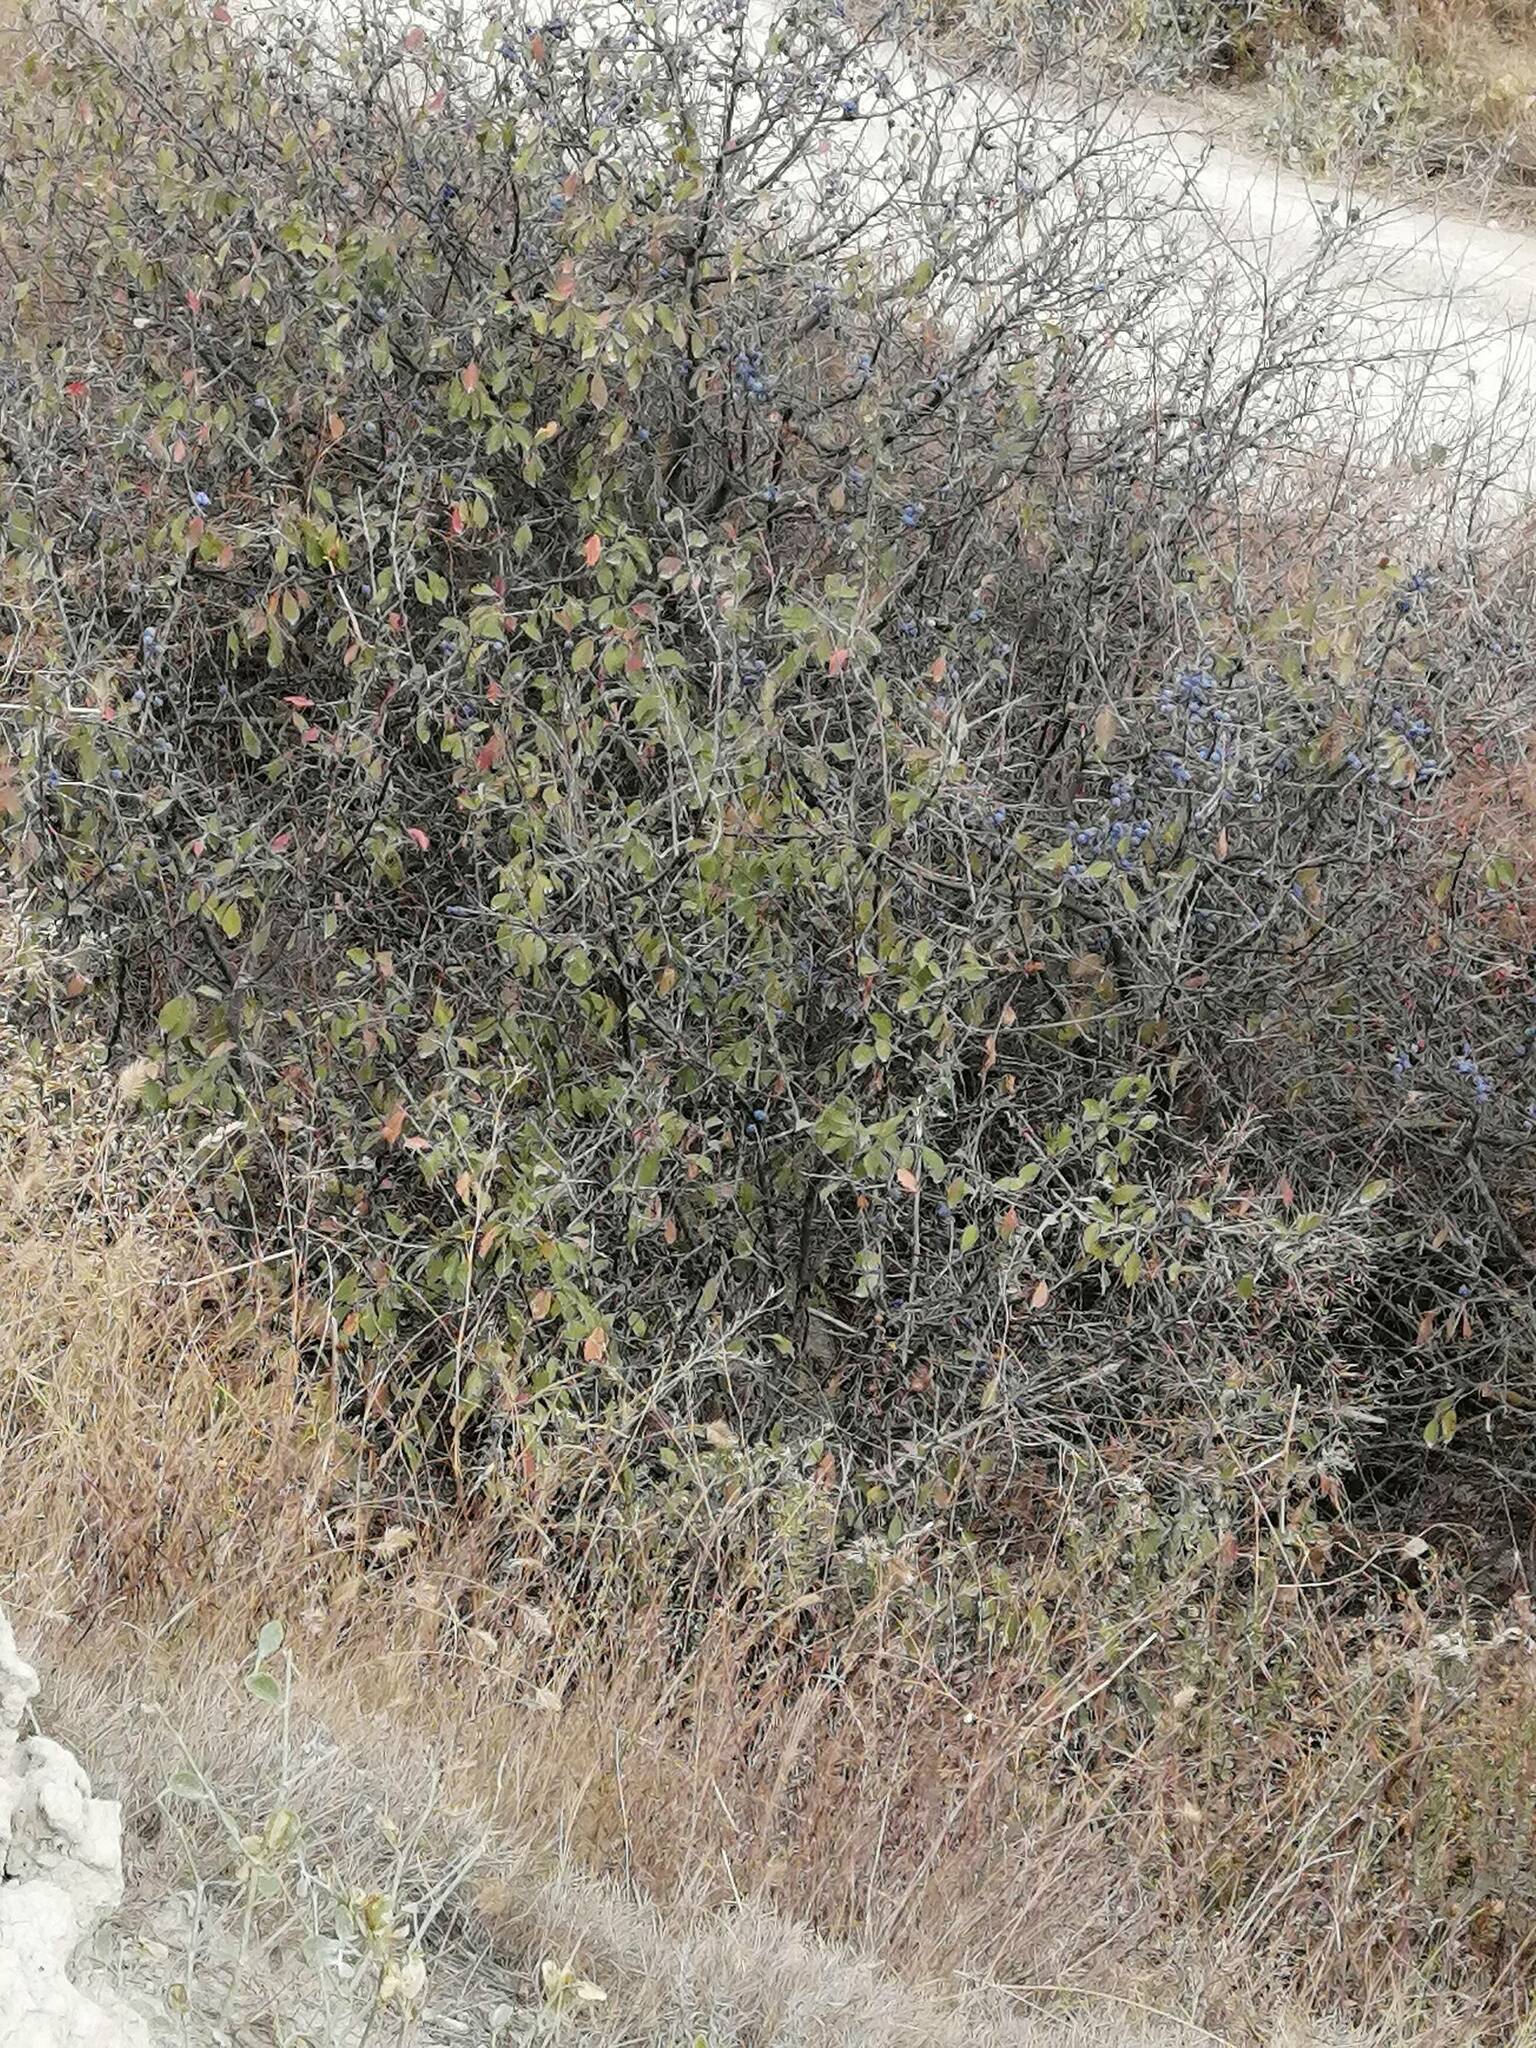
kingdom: Plantae
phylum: Tracheophyta
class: Magnoliopsida
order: Rosales
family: Rosaceae
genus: Prunus
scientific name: Prunus spinosa
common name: Blackthorn
